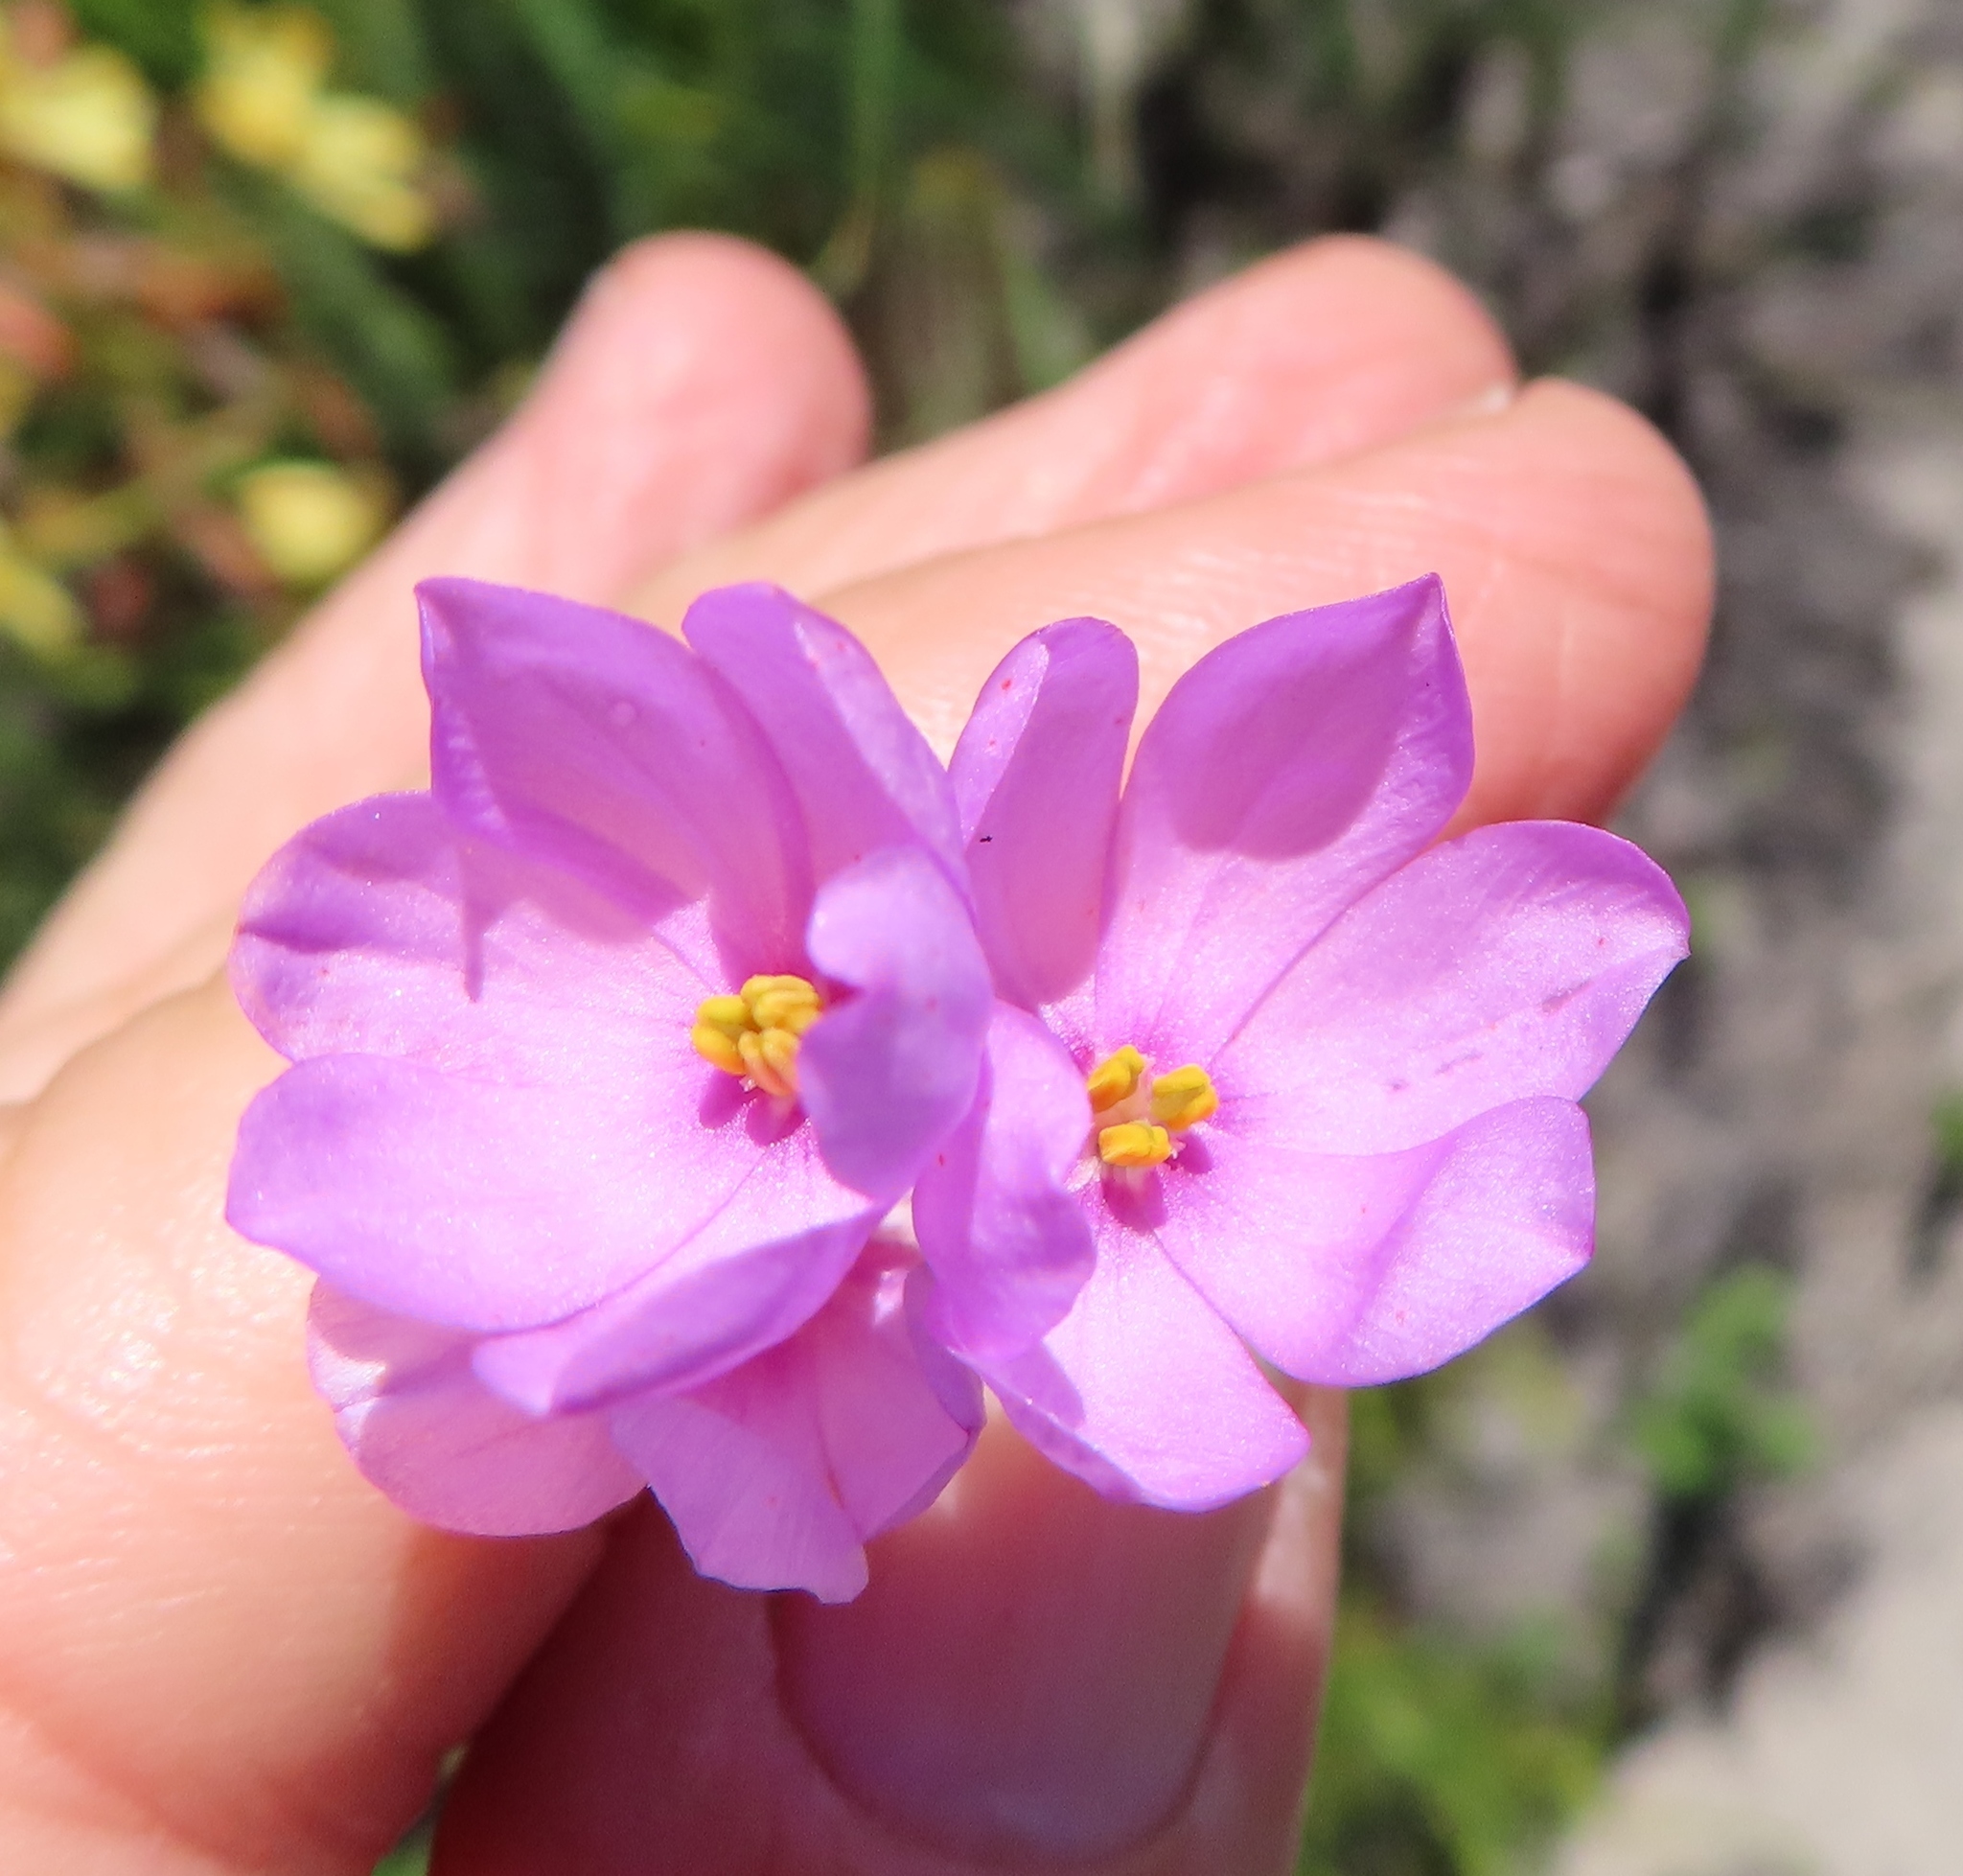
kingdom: Plantae
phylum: Tracheophyta
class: Liliopsida
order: Asparagales
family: Iridaceae
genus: Ixia
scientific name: Ixia micrandra
